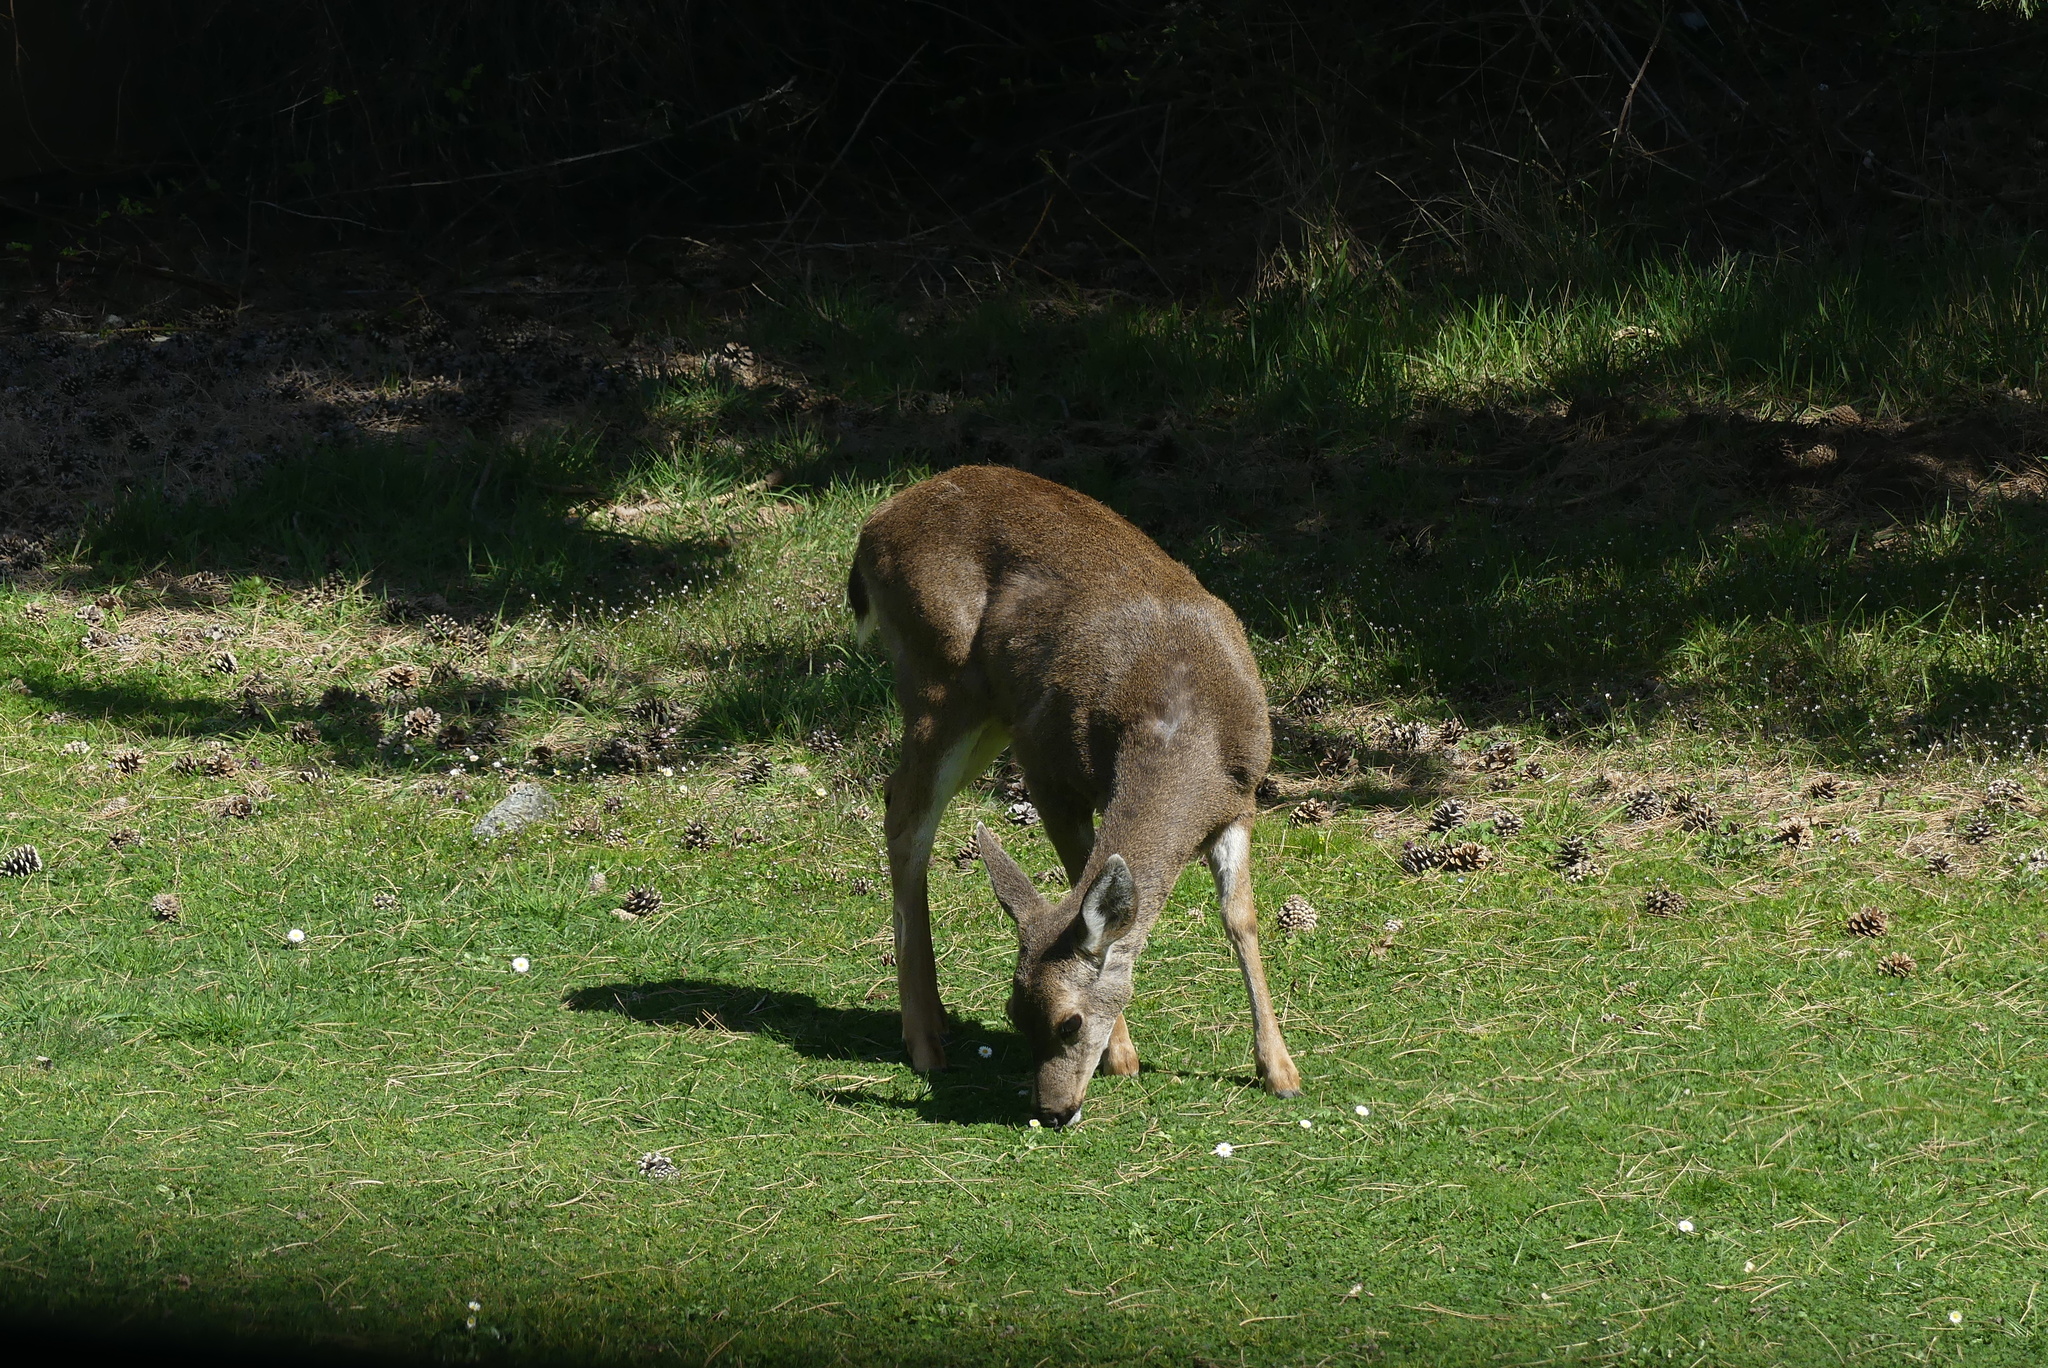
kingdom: Animalia
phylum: Chordata
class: Mammalia
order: Artiodactyla
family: Cervidae
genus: Odocoileus
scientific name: Odocoileus hemionus
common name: Mule deer
